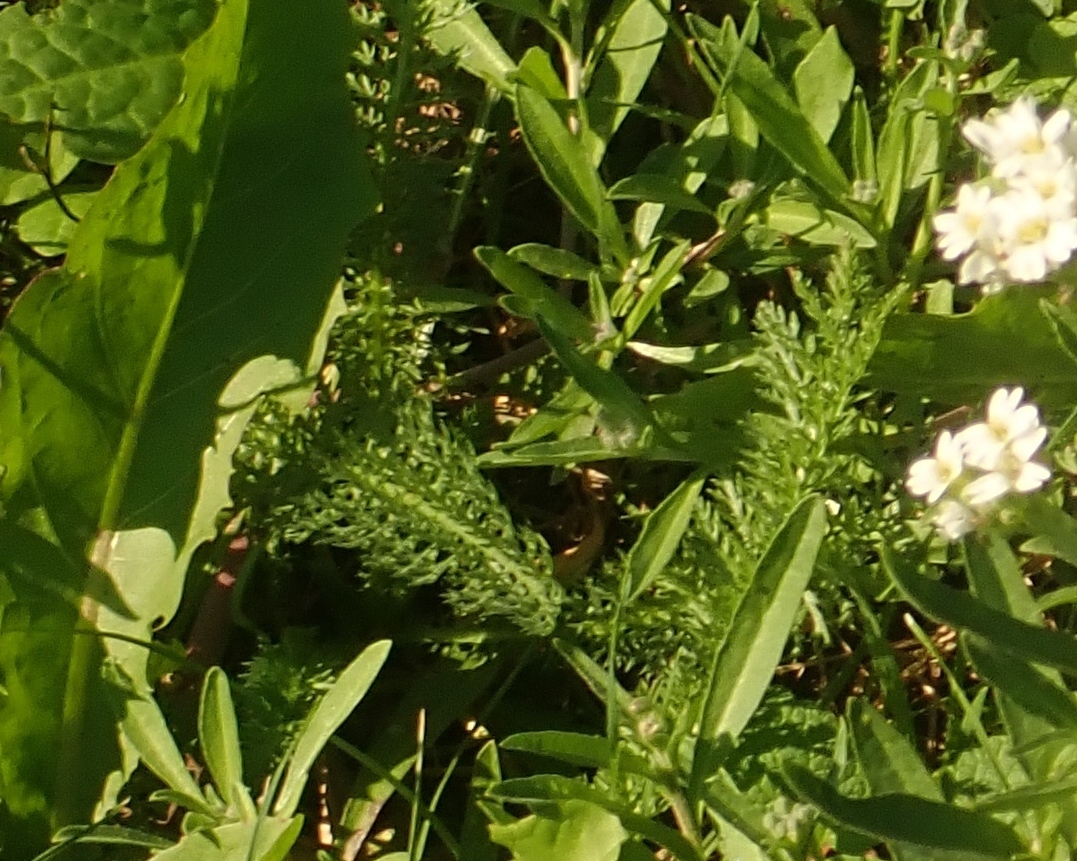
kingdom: Plantae
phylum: Tracheophyta
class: Magnoliopsida
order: Asterales
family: Asteraceae
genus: Achillea
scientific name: Achillea millefolium
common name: Yarrow
